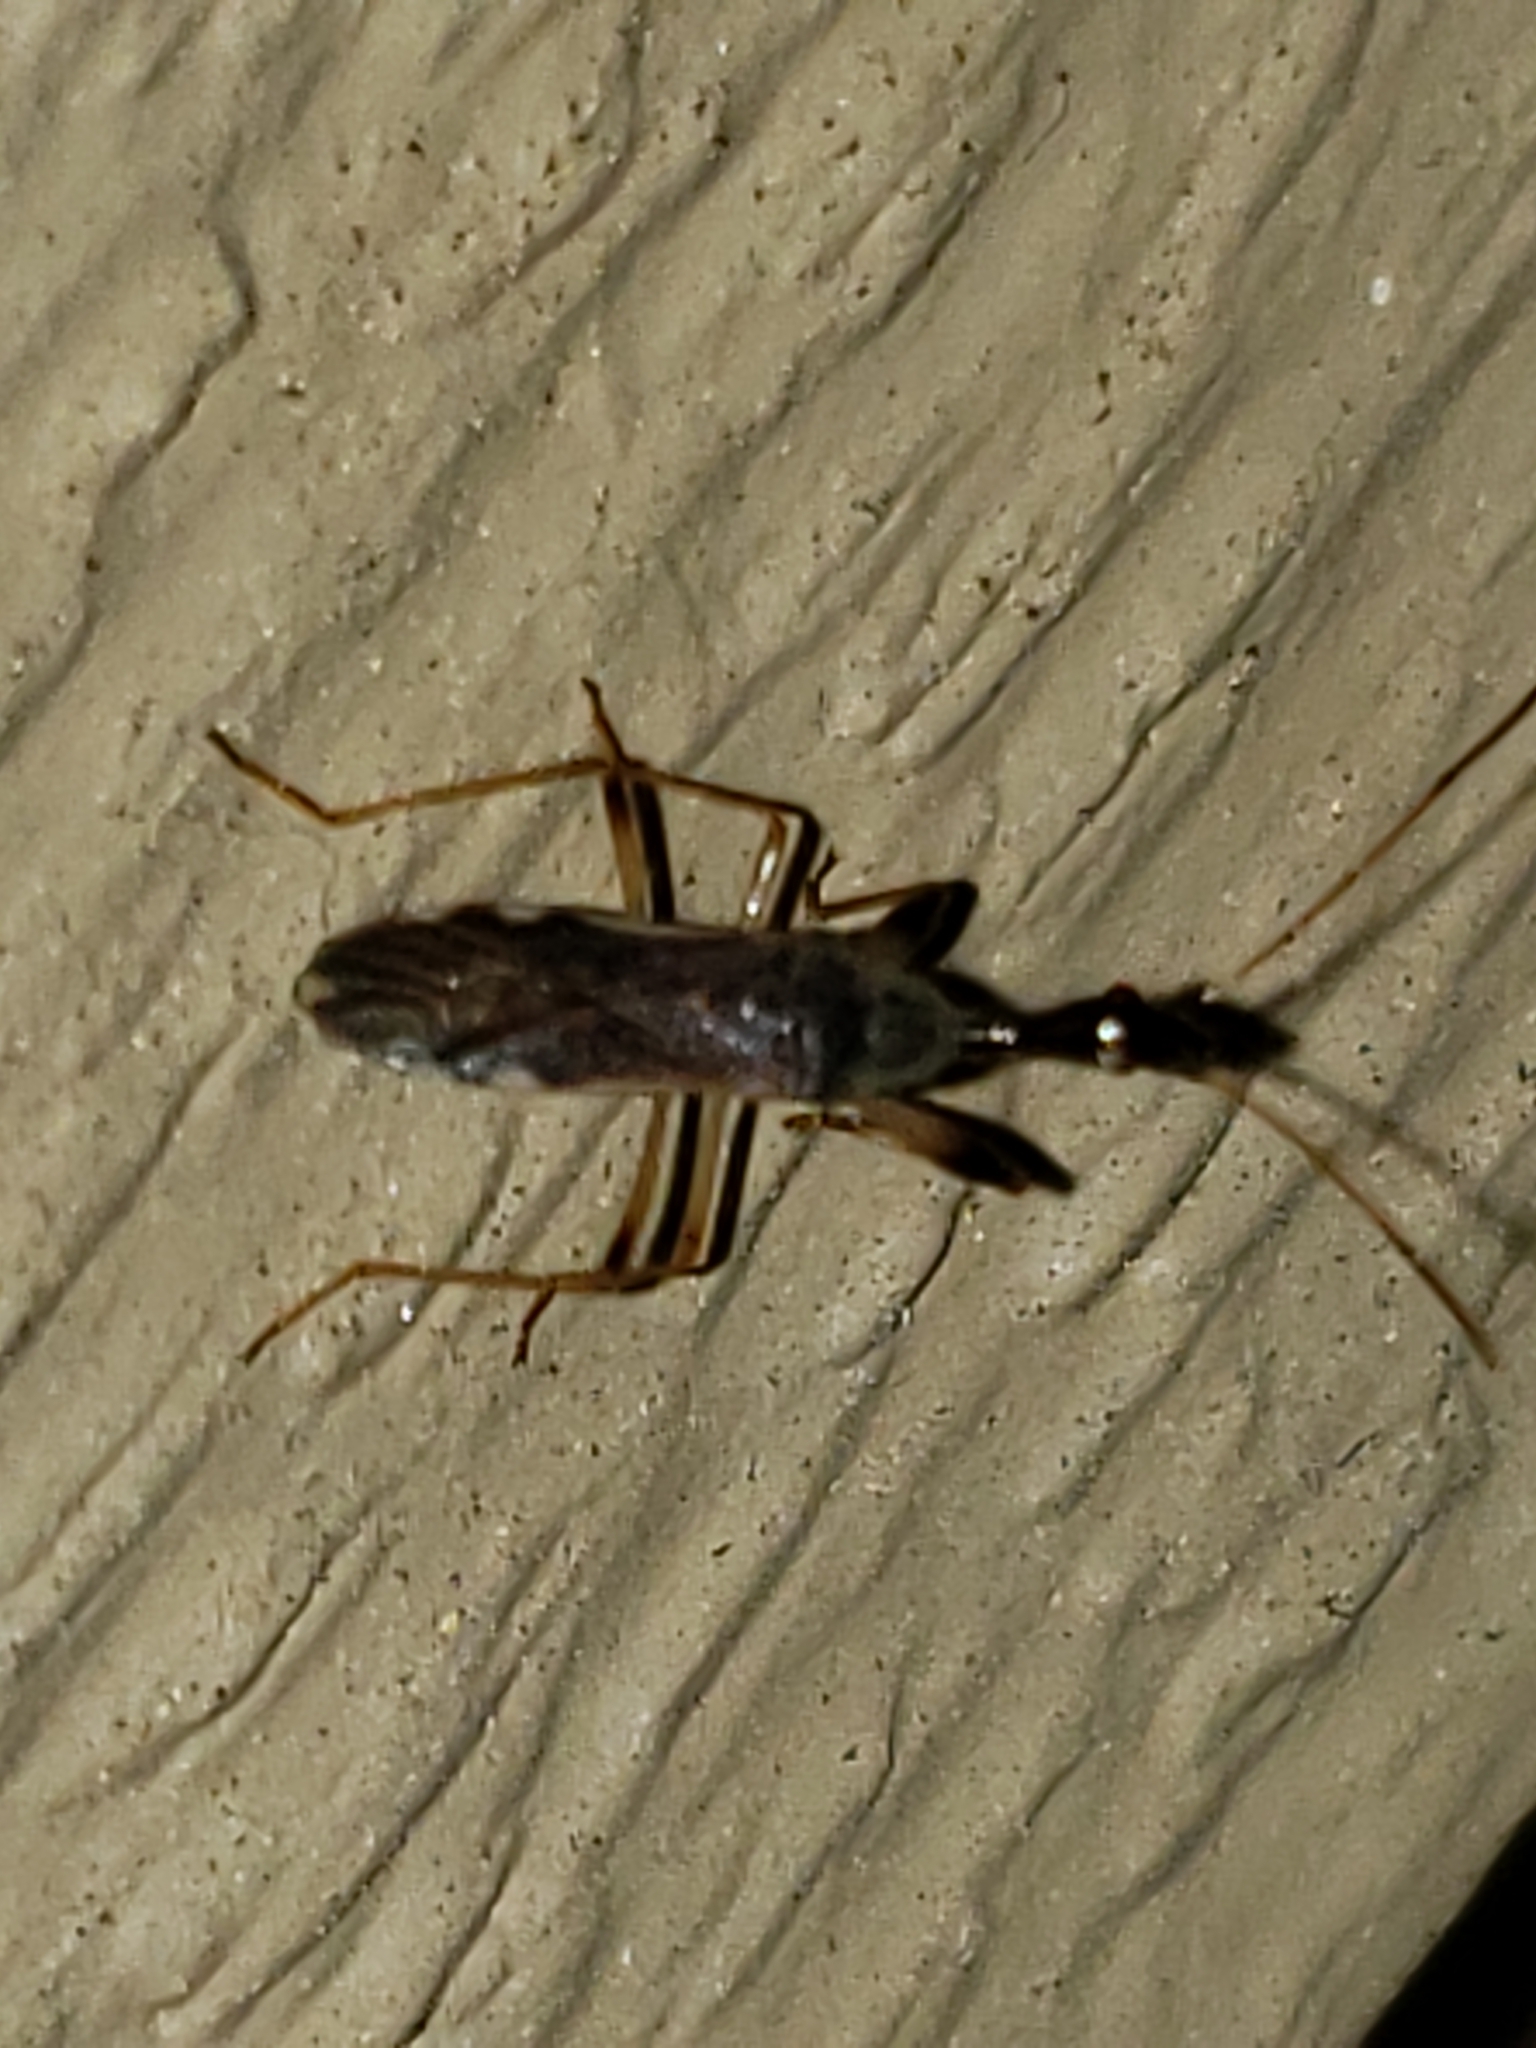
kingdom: Animalia
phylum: Arthropoda
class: Insecta
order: Hemiptera
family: Rhyparochromidae
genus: Myodocha
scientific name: Myodocha serripes
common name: Long-necked seed bug
